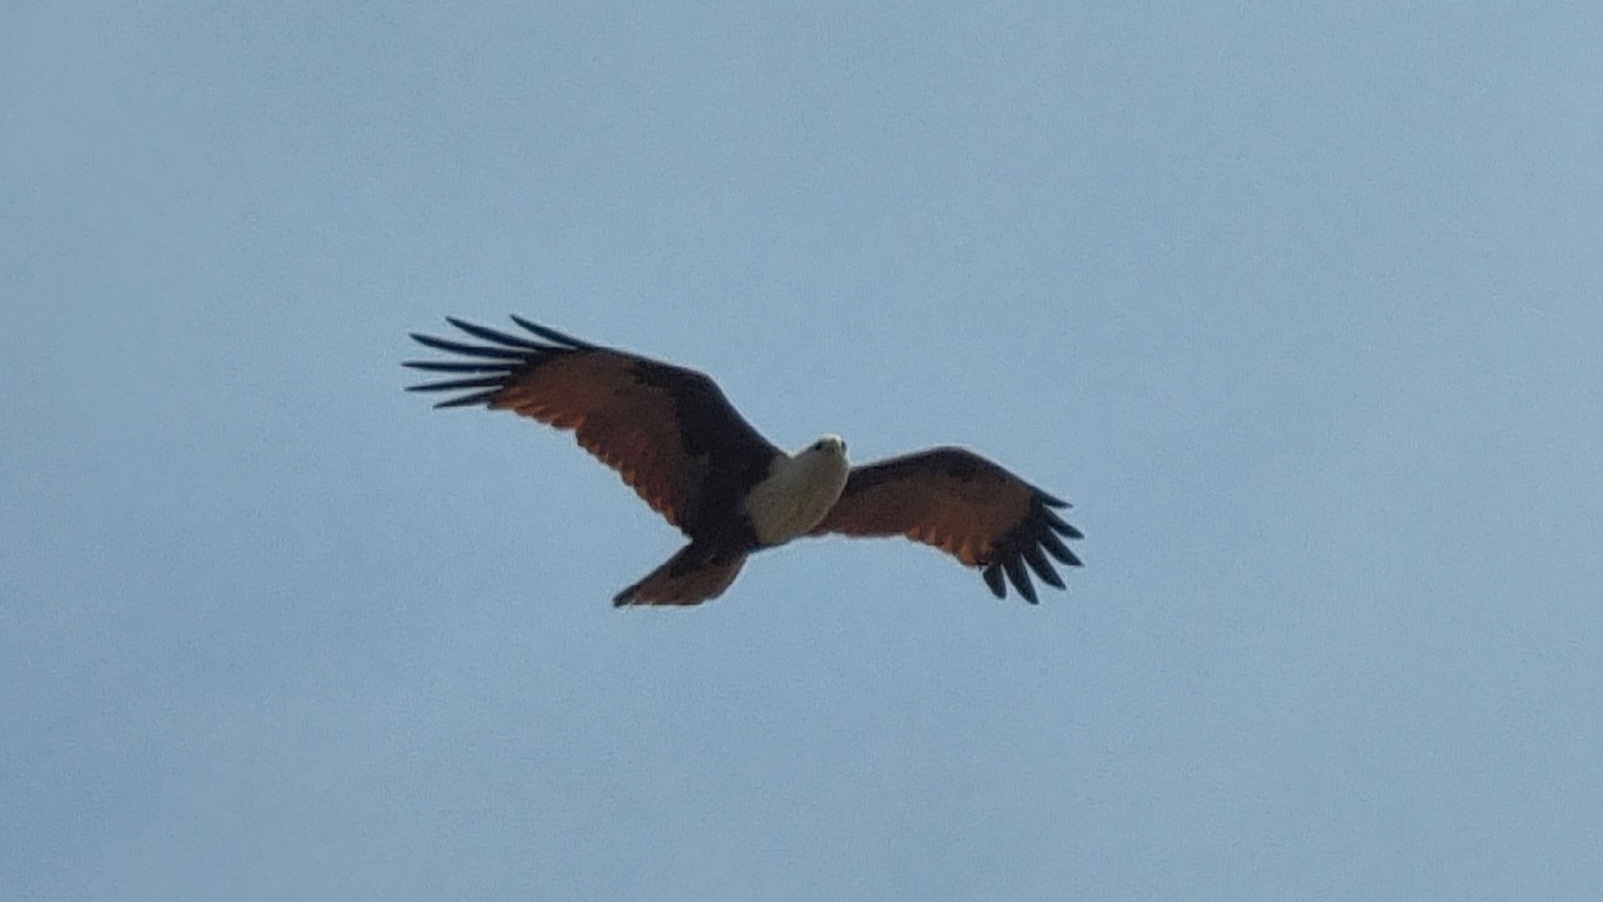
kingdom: Animalia
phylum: Chordata
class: Aves
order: Accipitriformes
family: Accipitridae
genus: Haliastur
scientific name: Haliastur indus
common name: Brahminy kite
